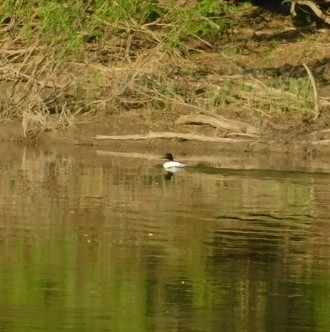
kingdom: Animalia
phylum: Chordata
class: Aves
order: Anseriformes
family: Anatidae
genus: Mergus
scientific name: Mergus merganser
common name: Common merganser
